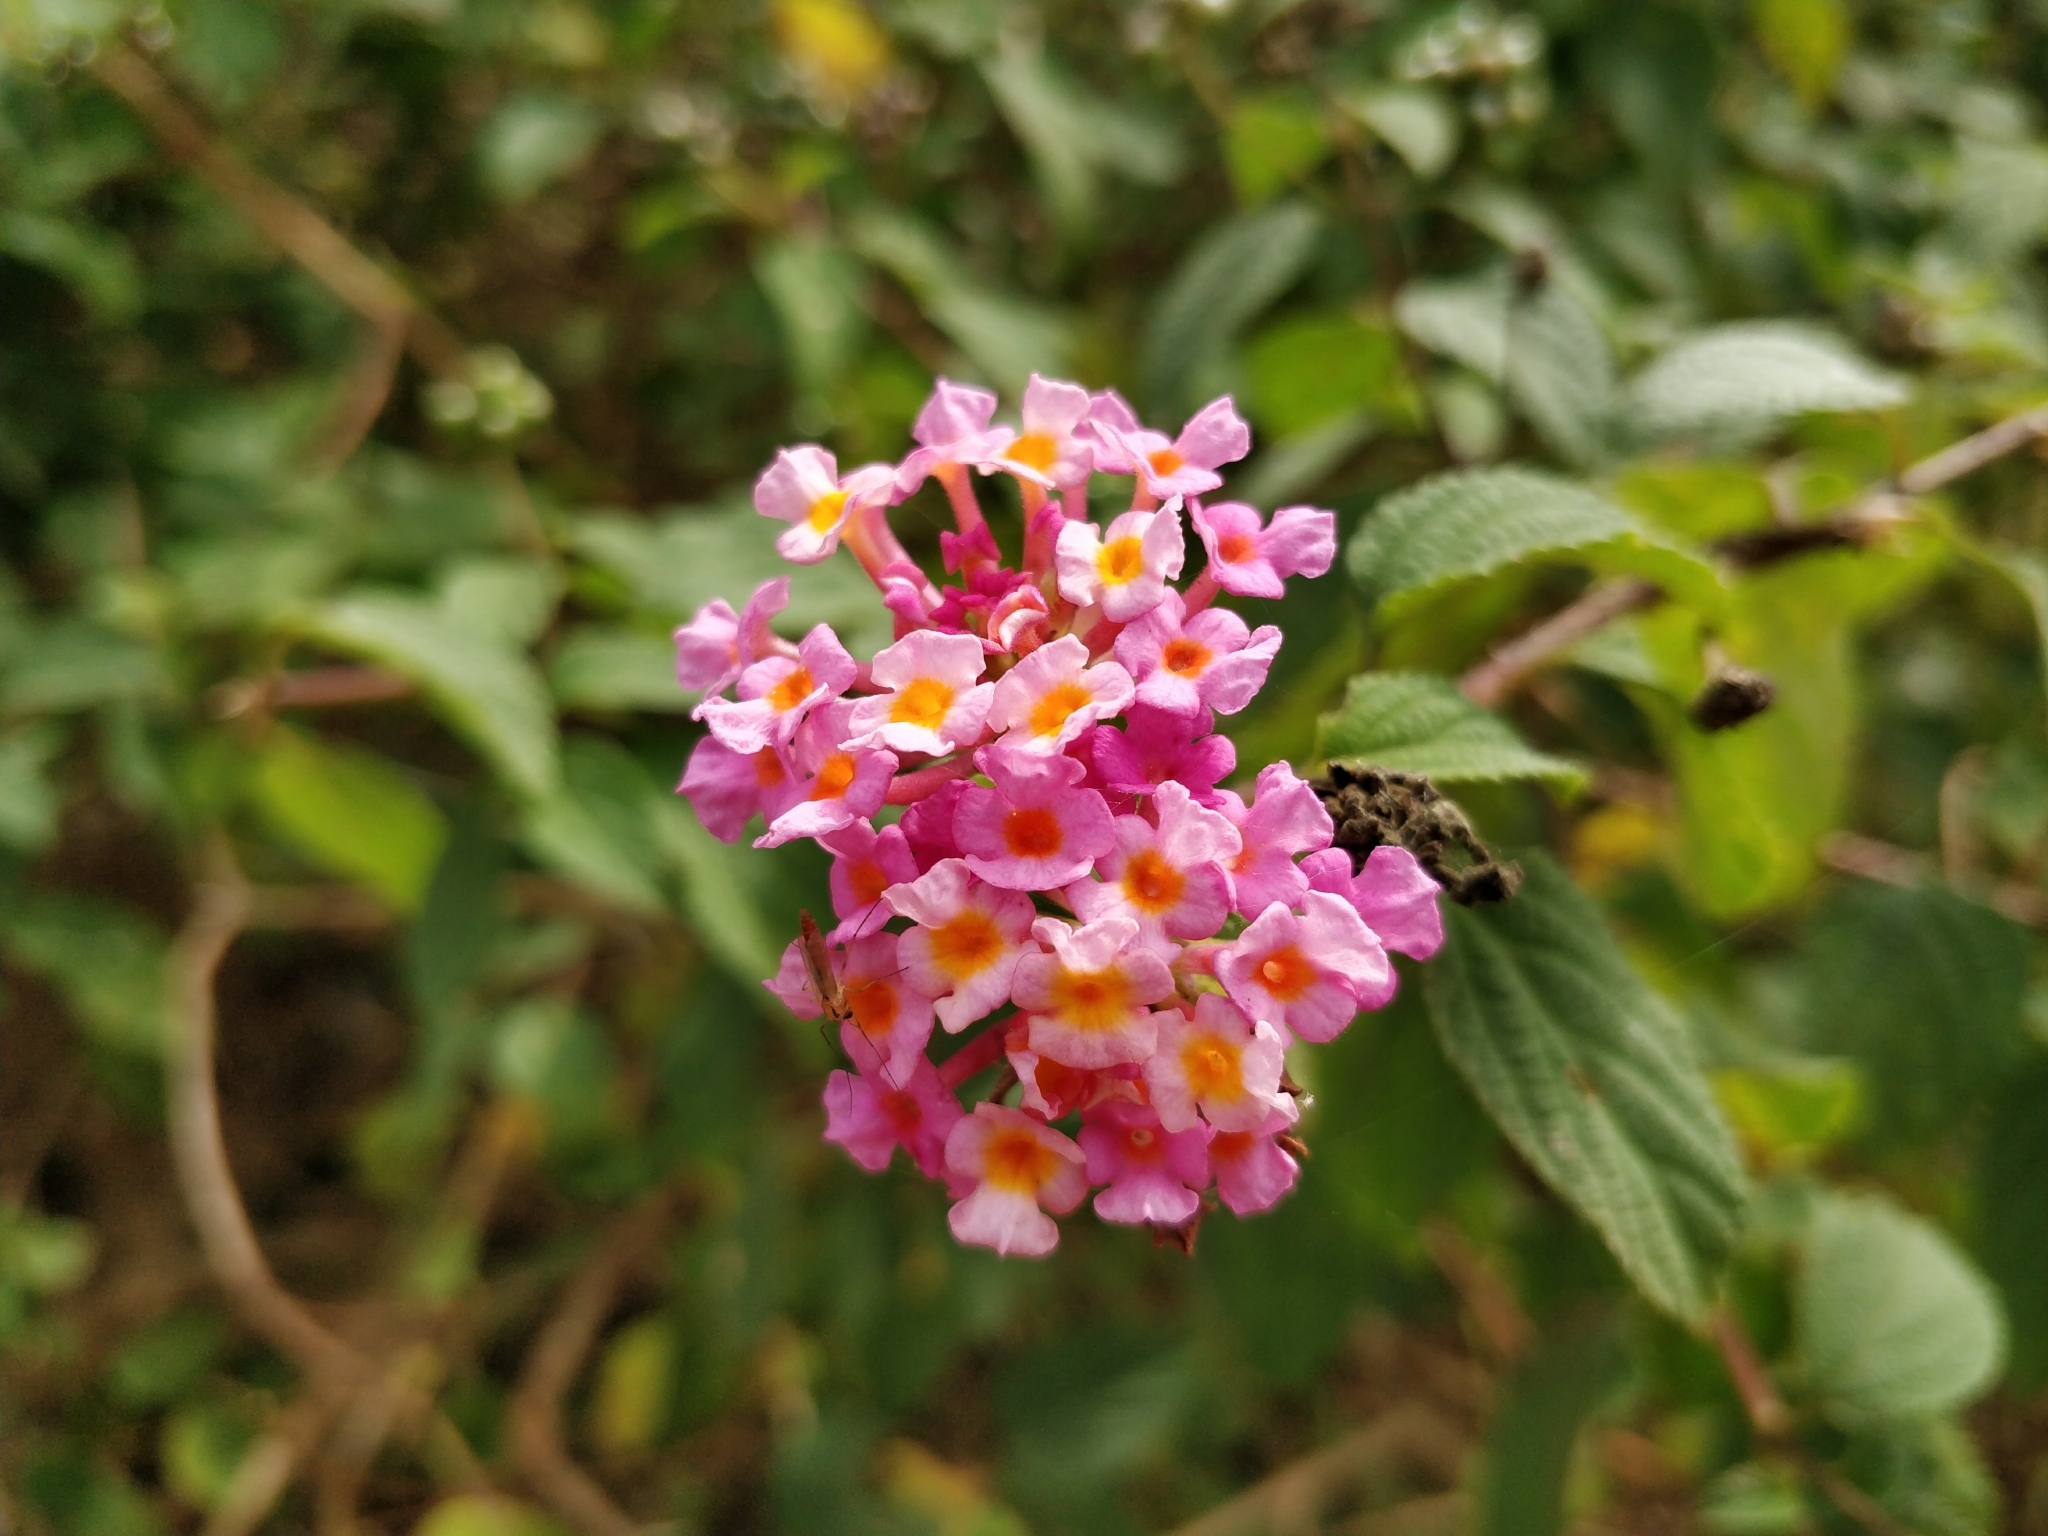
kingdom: Plantae
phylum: Tracheophyta
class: Magnoliopsida
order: Lamiales
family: Verbenaceae
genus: Lantana
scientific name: Lantana camara
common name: Lantana
